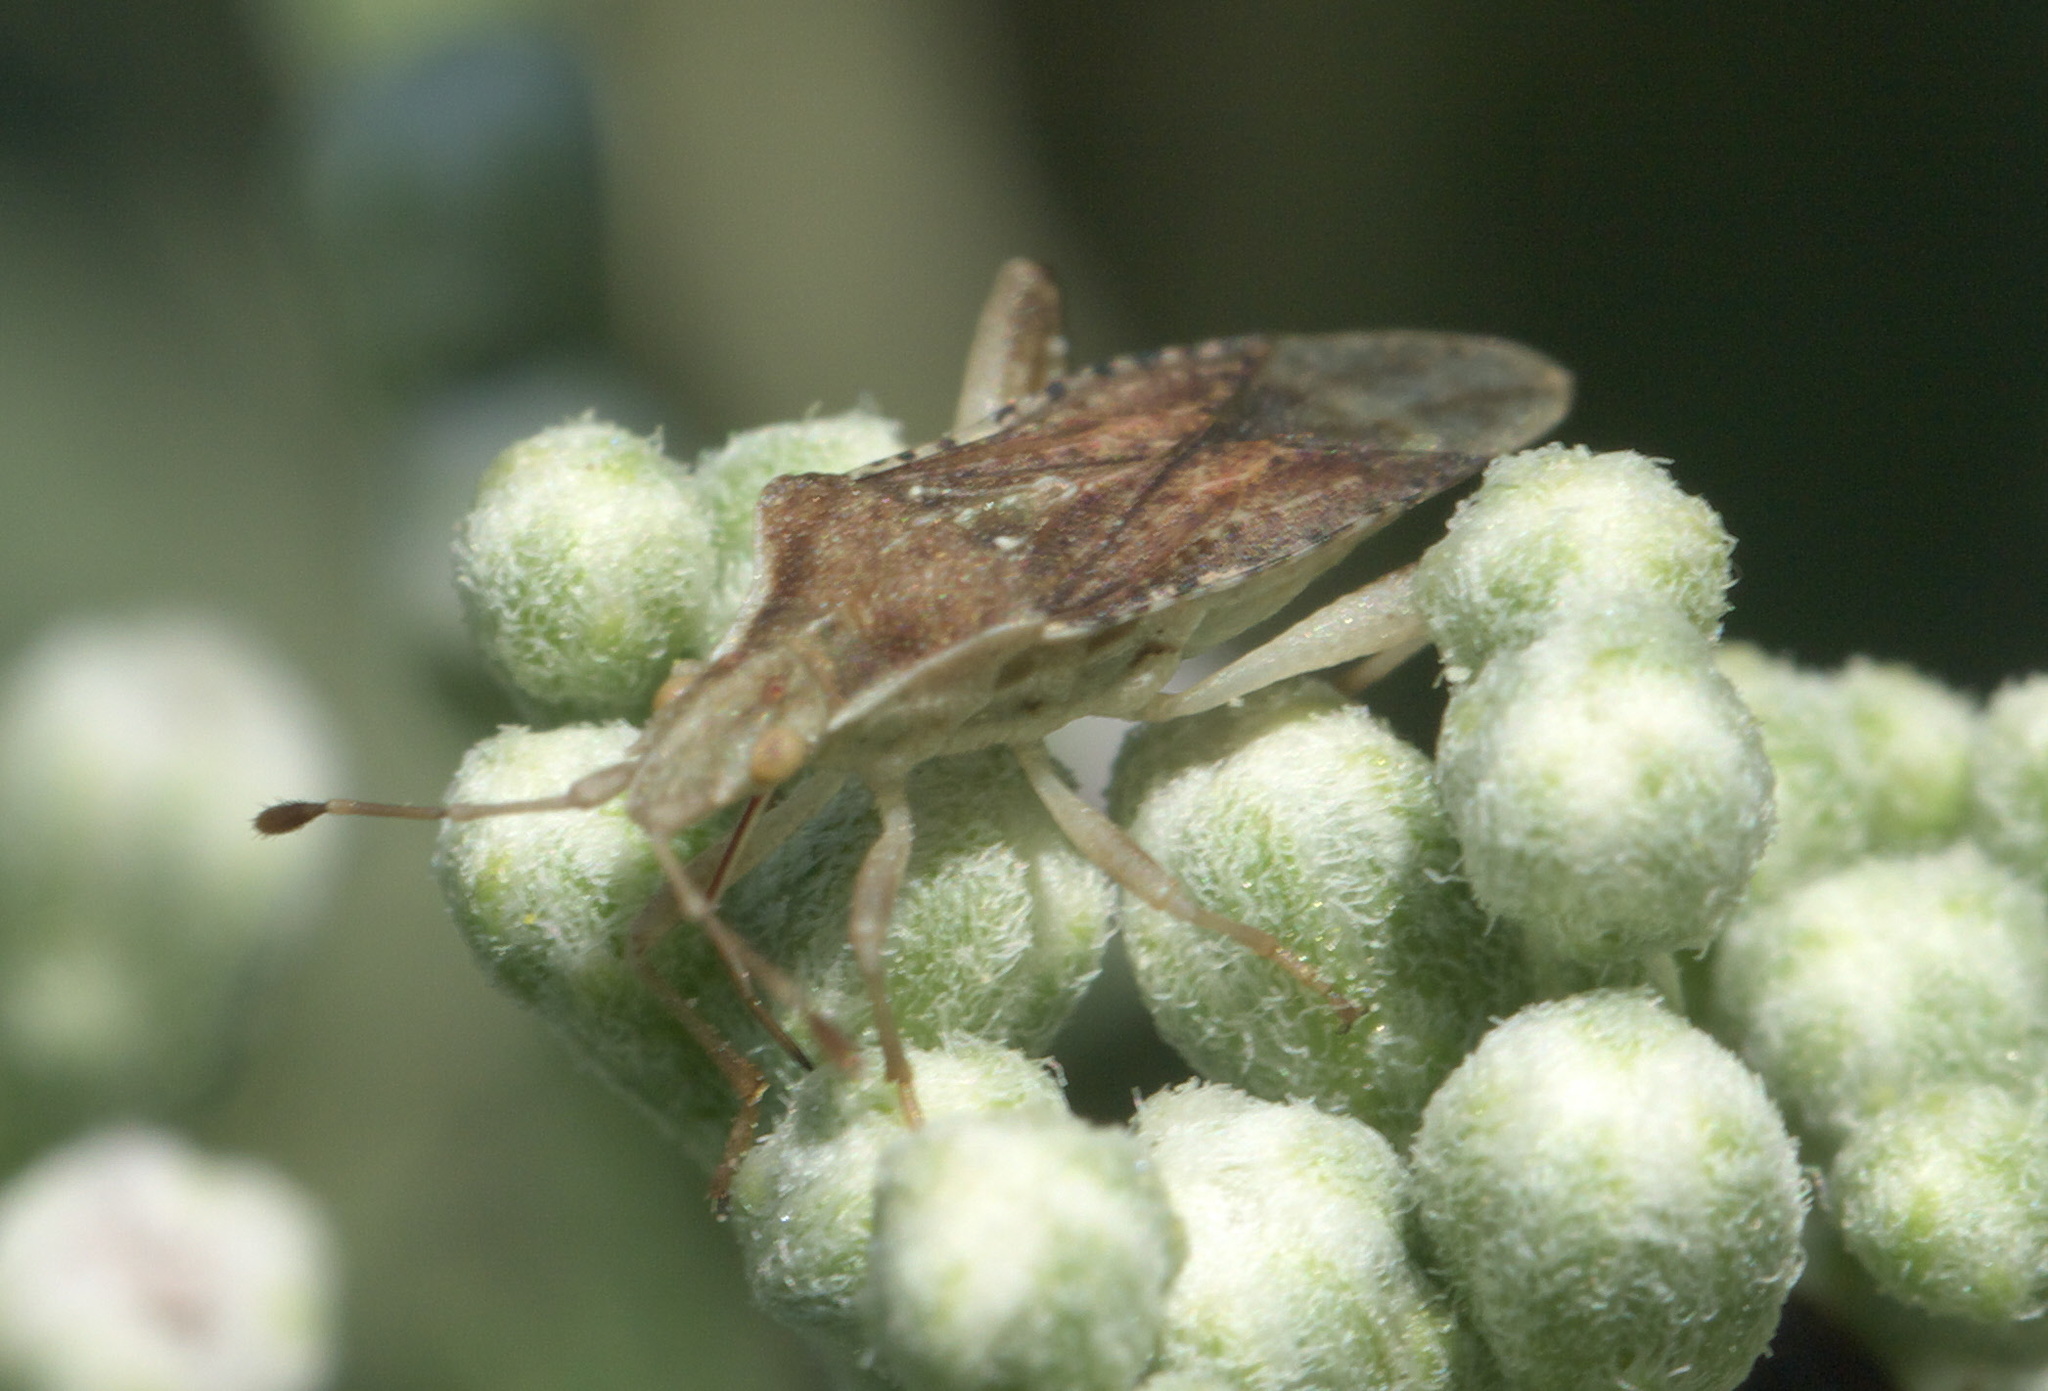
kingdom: Animalia
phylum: Arthropoda
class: Insecta
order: Hemiptera
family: Rhopalidae
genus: Harmostes
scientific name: Harmostes fraterculus
